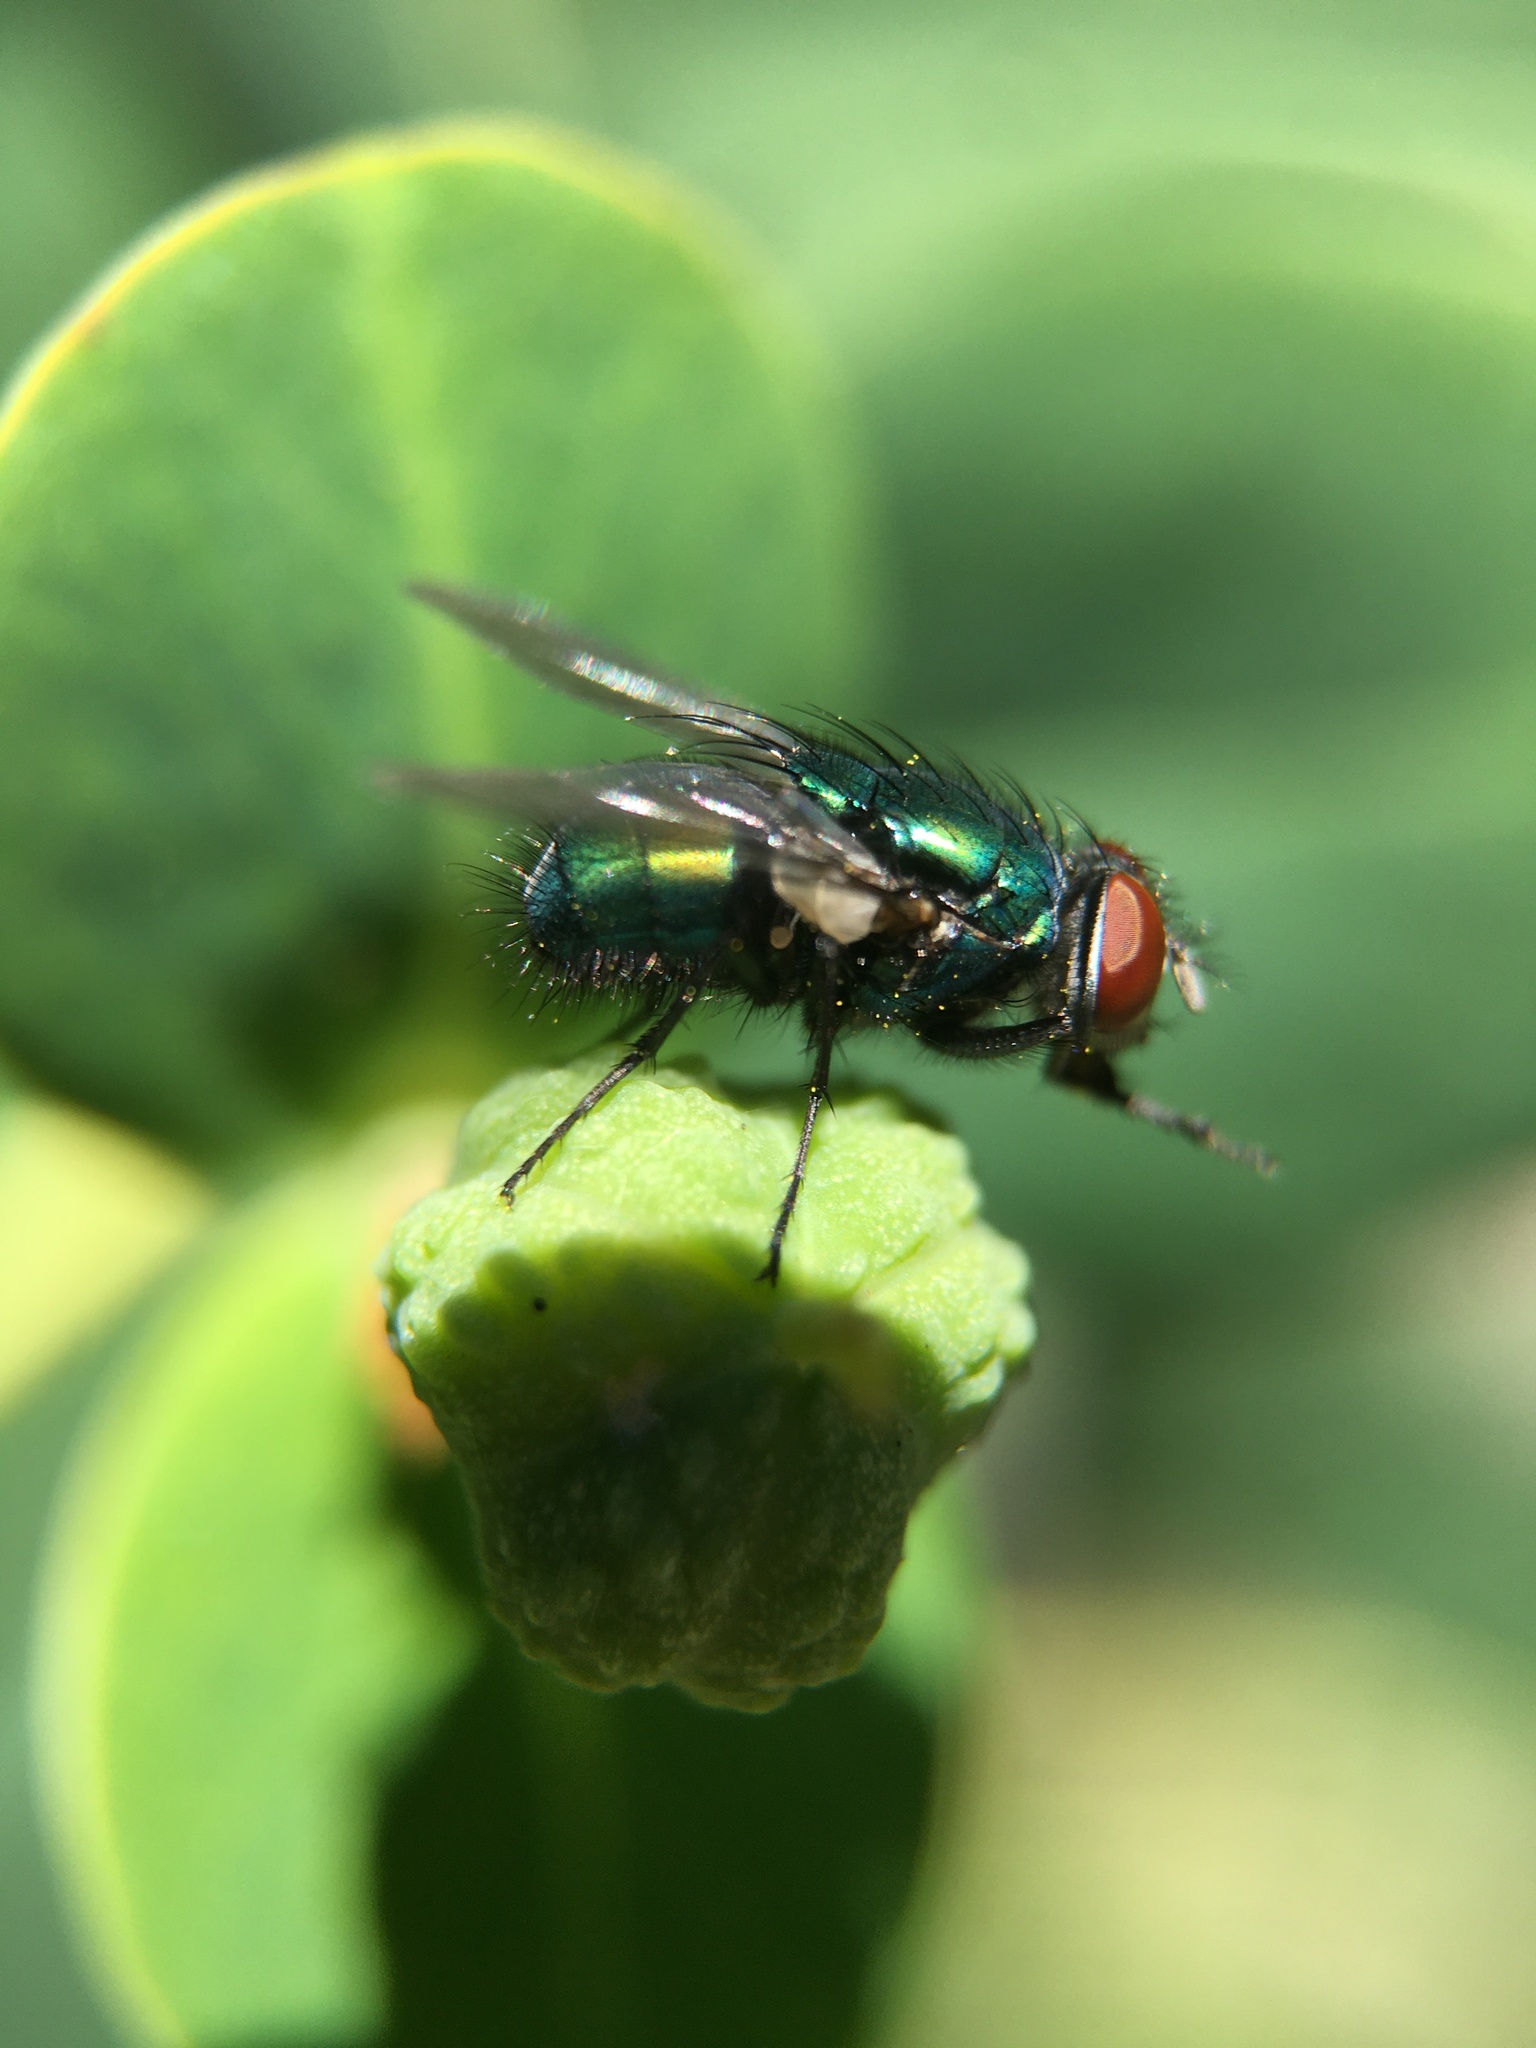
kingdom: Animalia
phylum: Arthropoda
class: Insecta
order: Diptera
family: Calliphoridae
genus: Lucilia
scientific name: Lucilia sericata
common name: Blow fly
